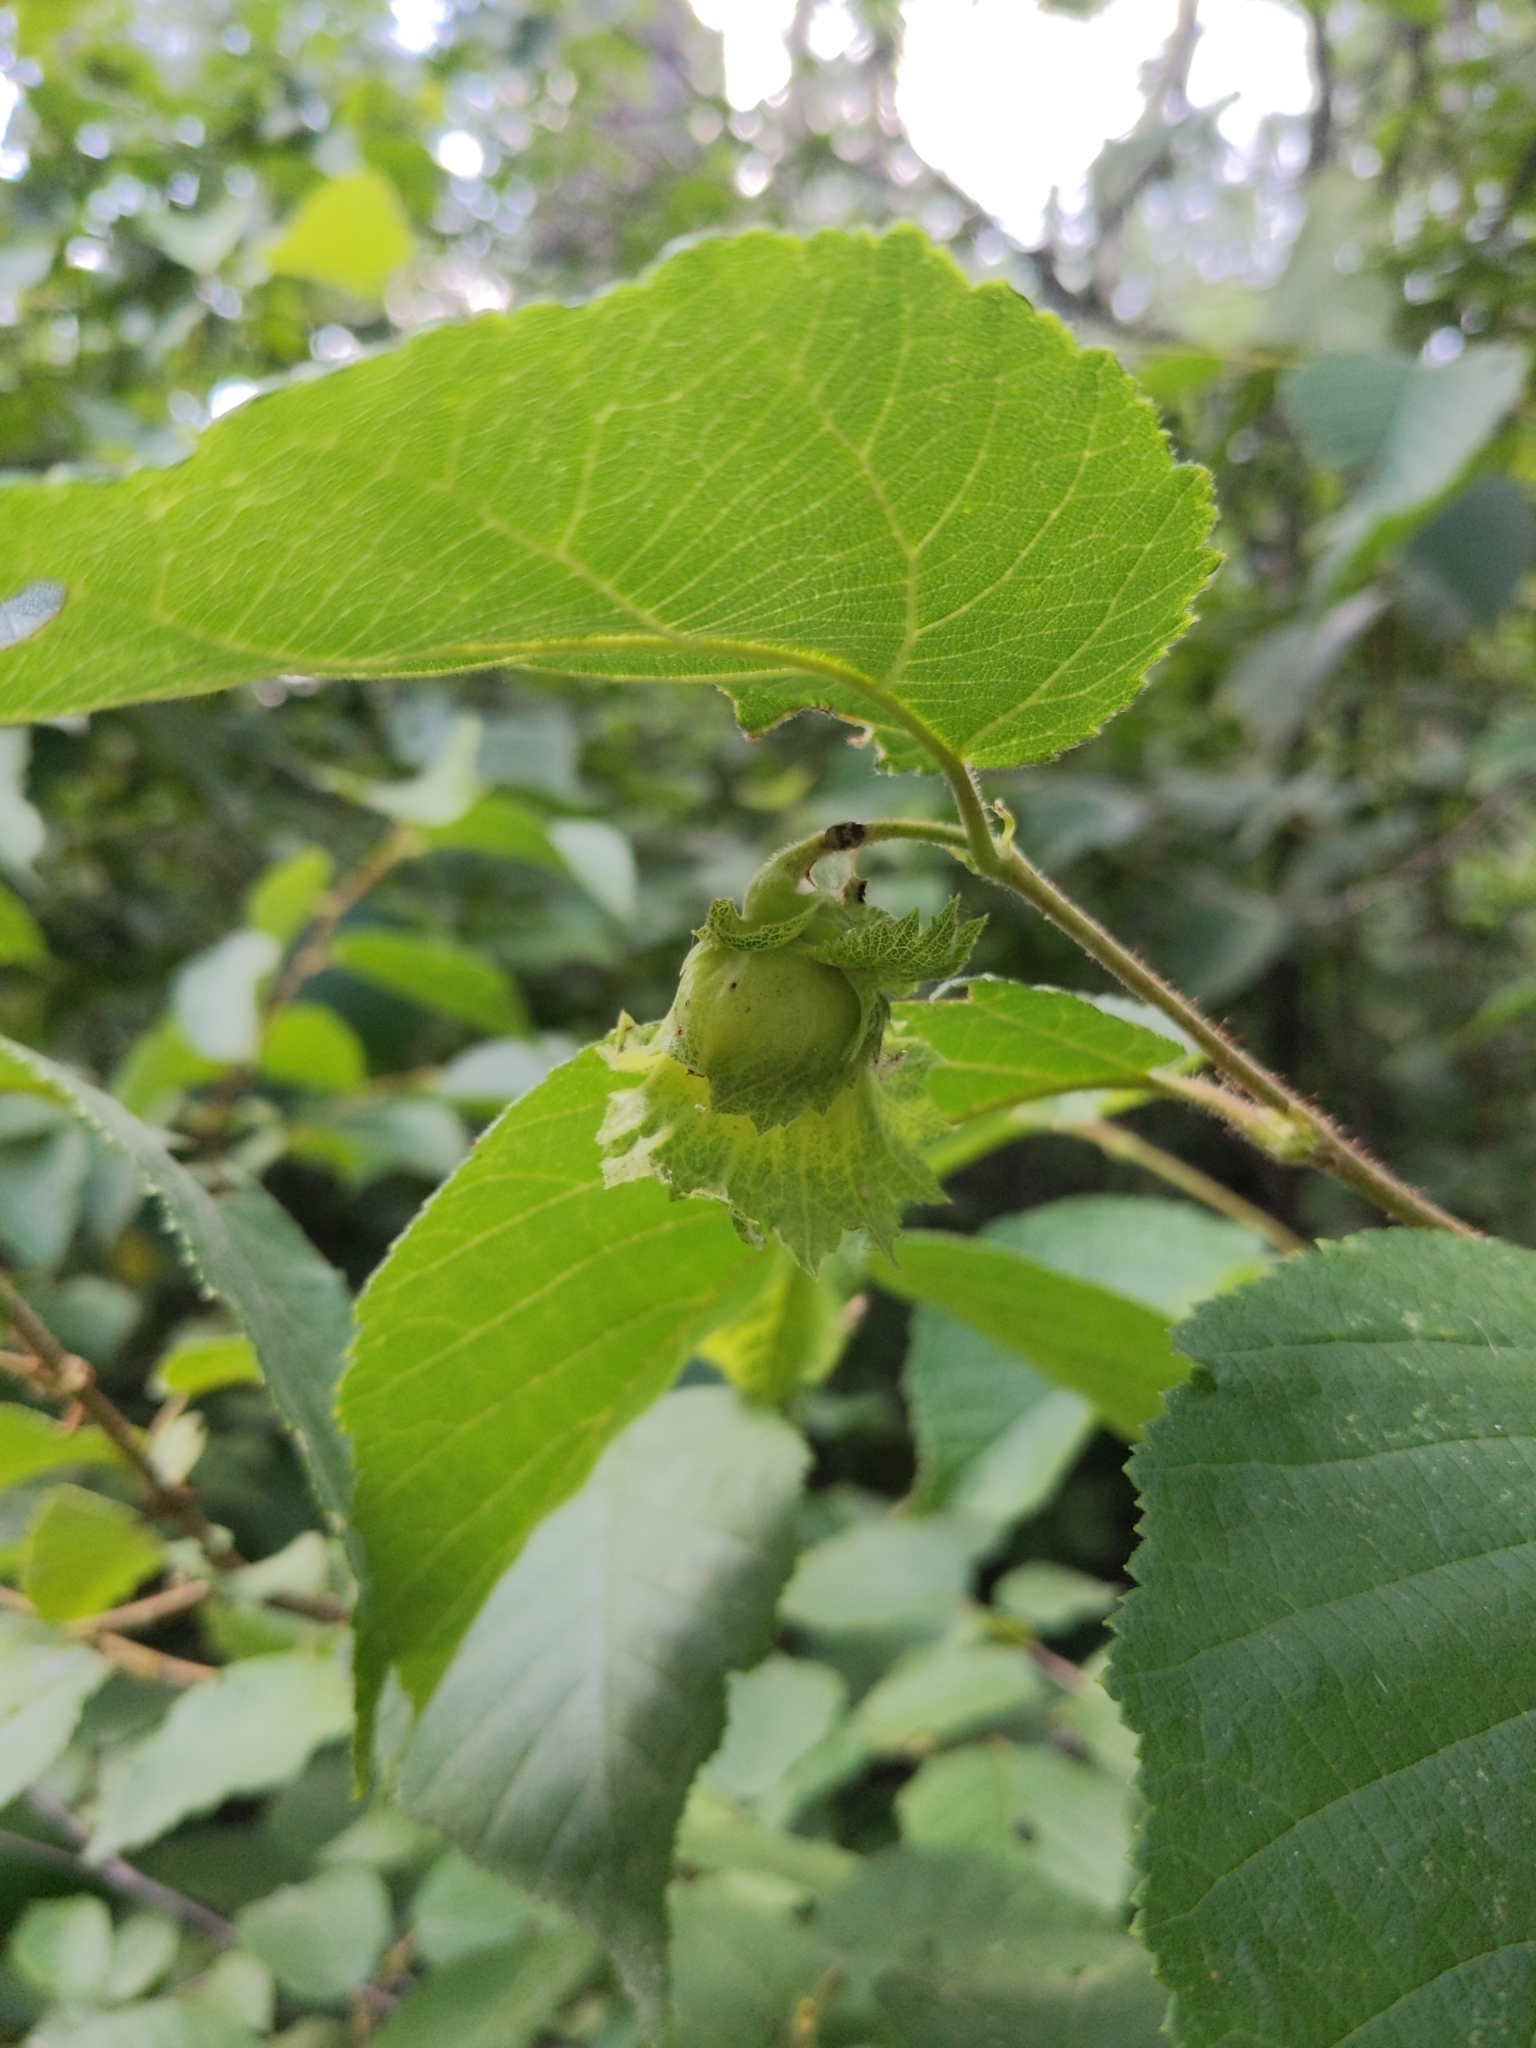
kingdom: Plantae
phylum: Tracheophyta
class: Magnoliopsida
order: Fagales
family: Betulaceae
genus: Corylus
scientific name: Corylus americana
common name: American hazel
